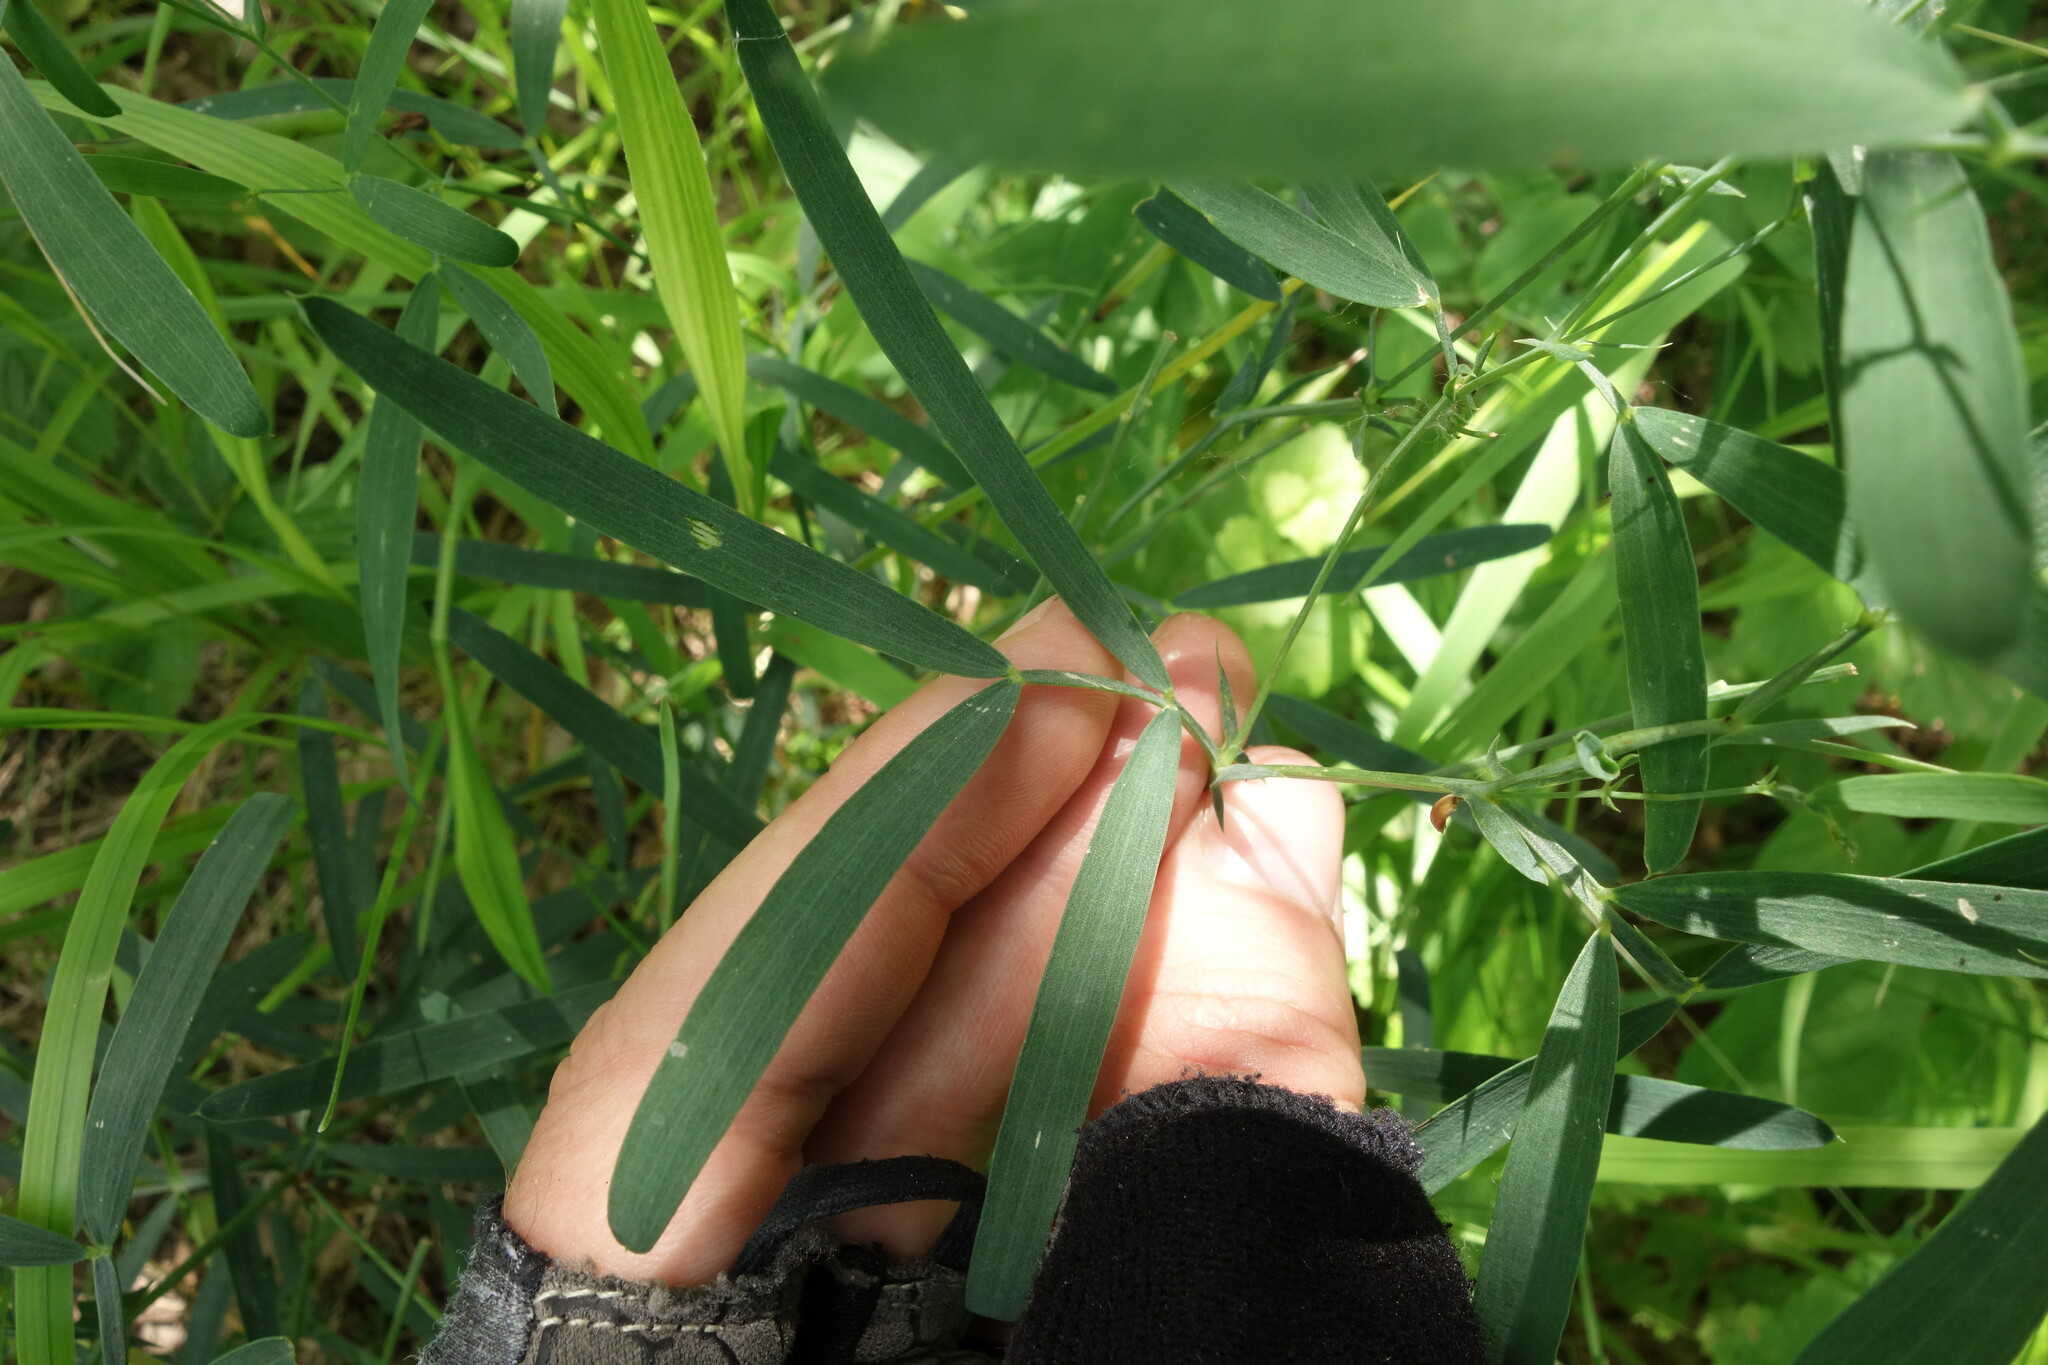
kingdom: Plantae
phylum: Tracheophyta
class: Magnoliopsida
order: Fabales
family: Fabaceae
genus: Lathyrus
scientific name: Lathyrus pallescens
